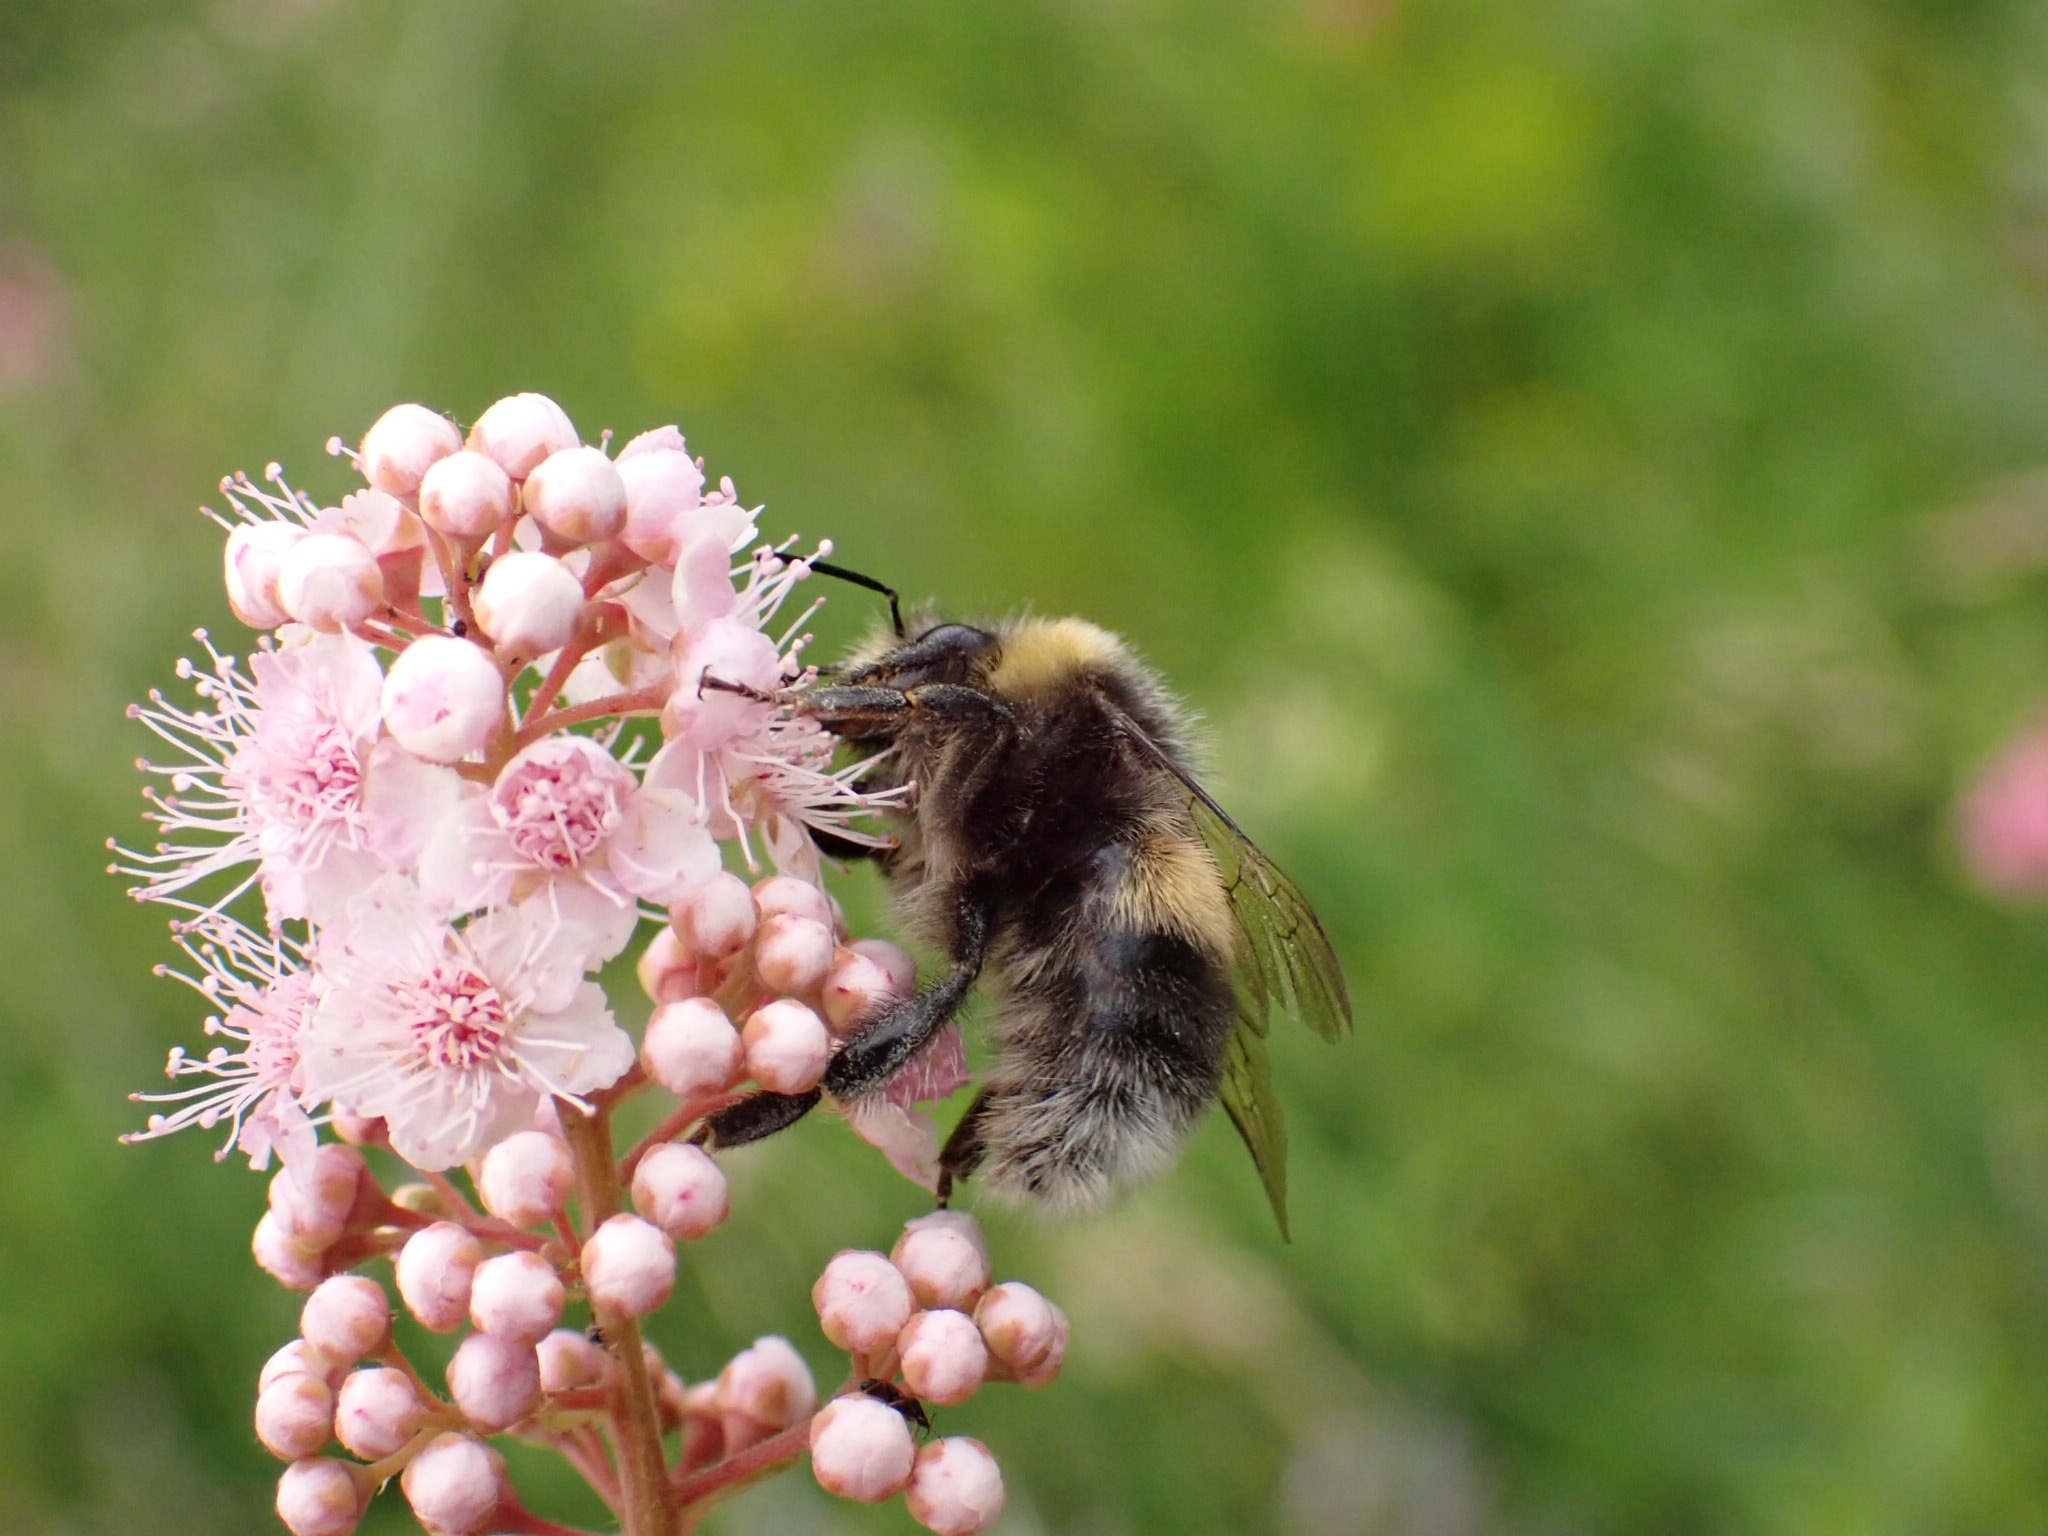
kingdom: Animalia
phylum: Arthropoda
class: Insecta
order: Hymenoptera
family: Apidae
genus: Bombus
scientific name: Bombus lucorum
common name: White-tailed bumblebee
